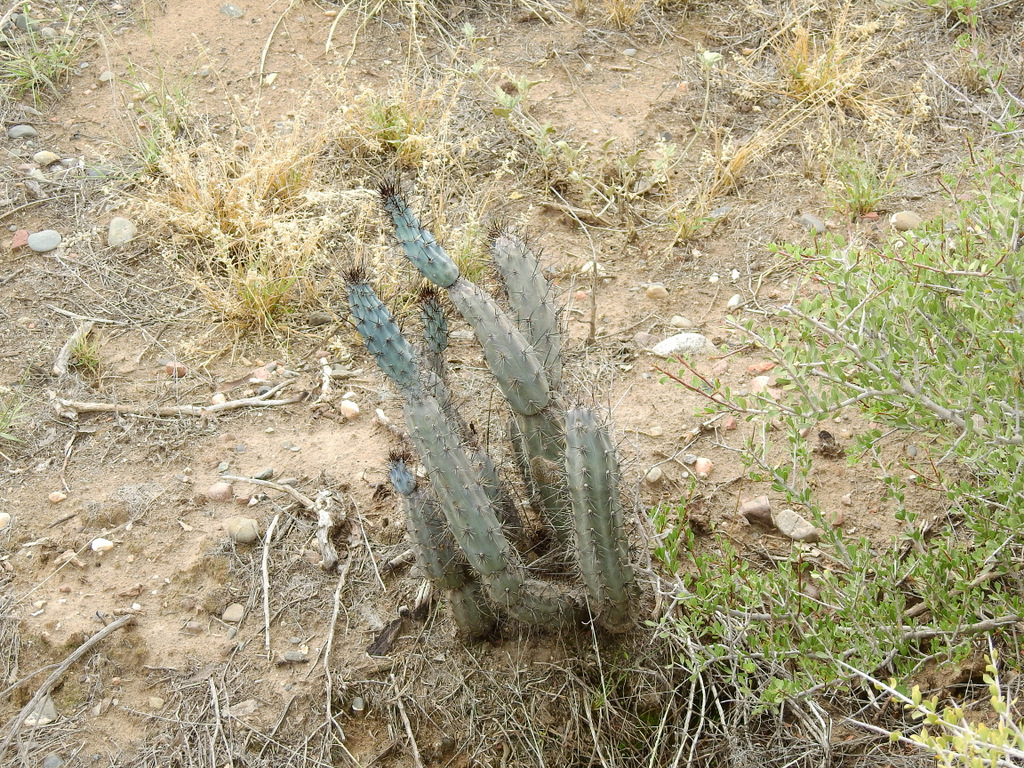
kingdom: Plantae
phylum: Tracheophyta
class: Magnoliopsida
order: Caryophyllales
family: Cactaceae
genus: Cereus
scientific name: Cereus aethiops
